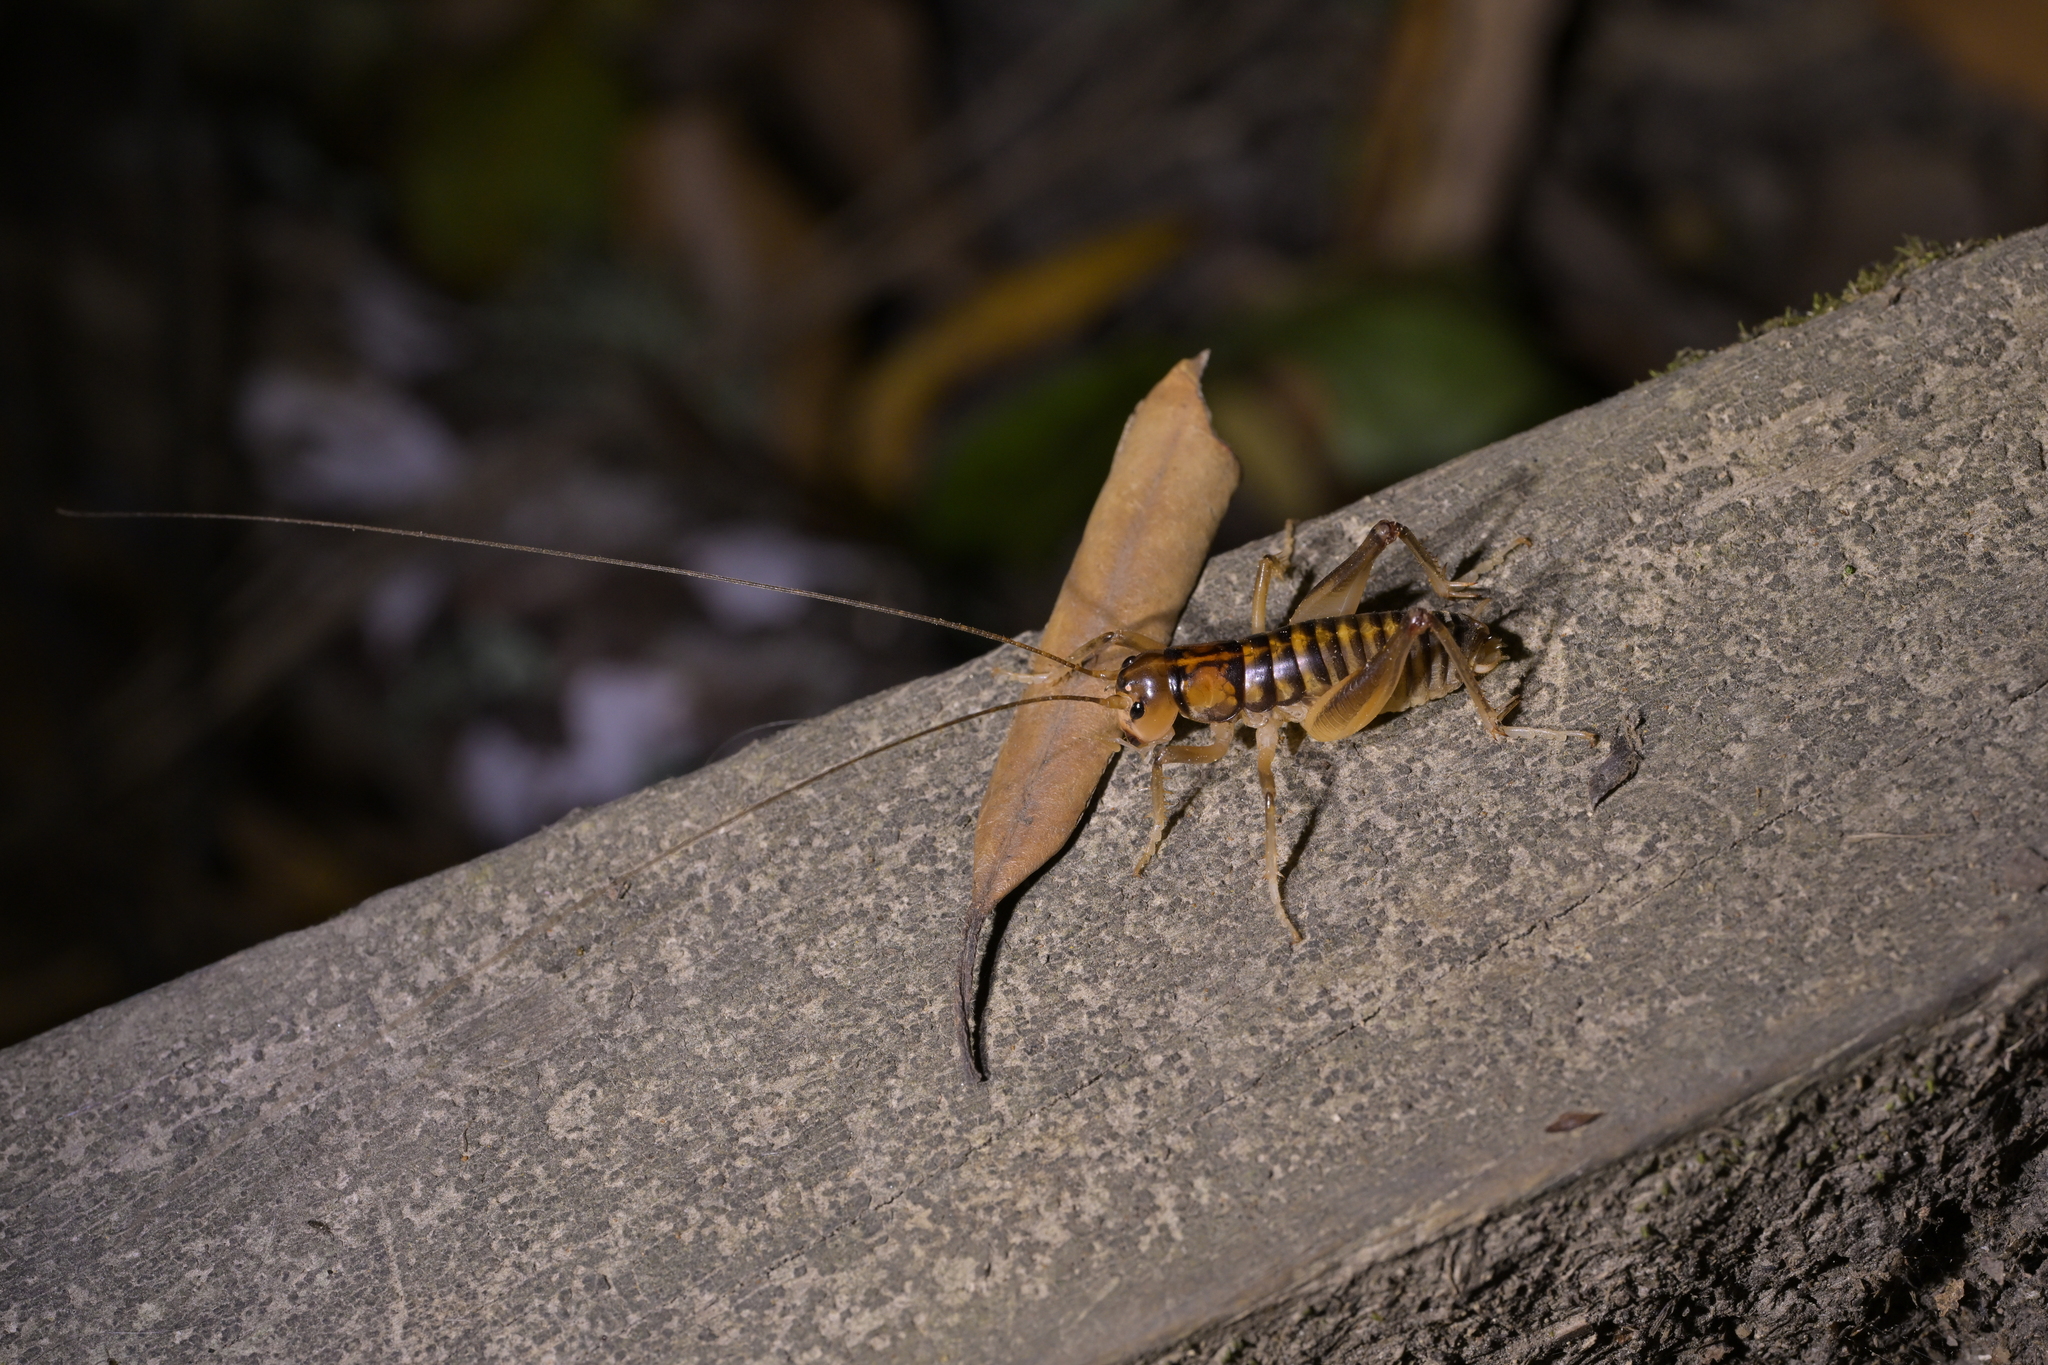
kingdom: Animalia
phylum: Arthropoda
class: Insecta
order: Orthoptera
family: Anostostomatidae
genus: Hemiandrus
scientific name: Hemiandrus pallitarsis
